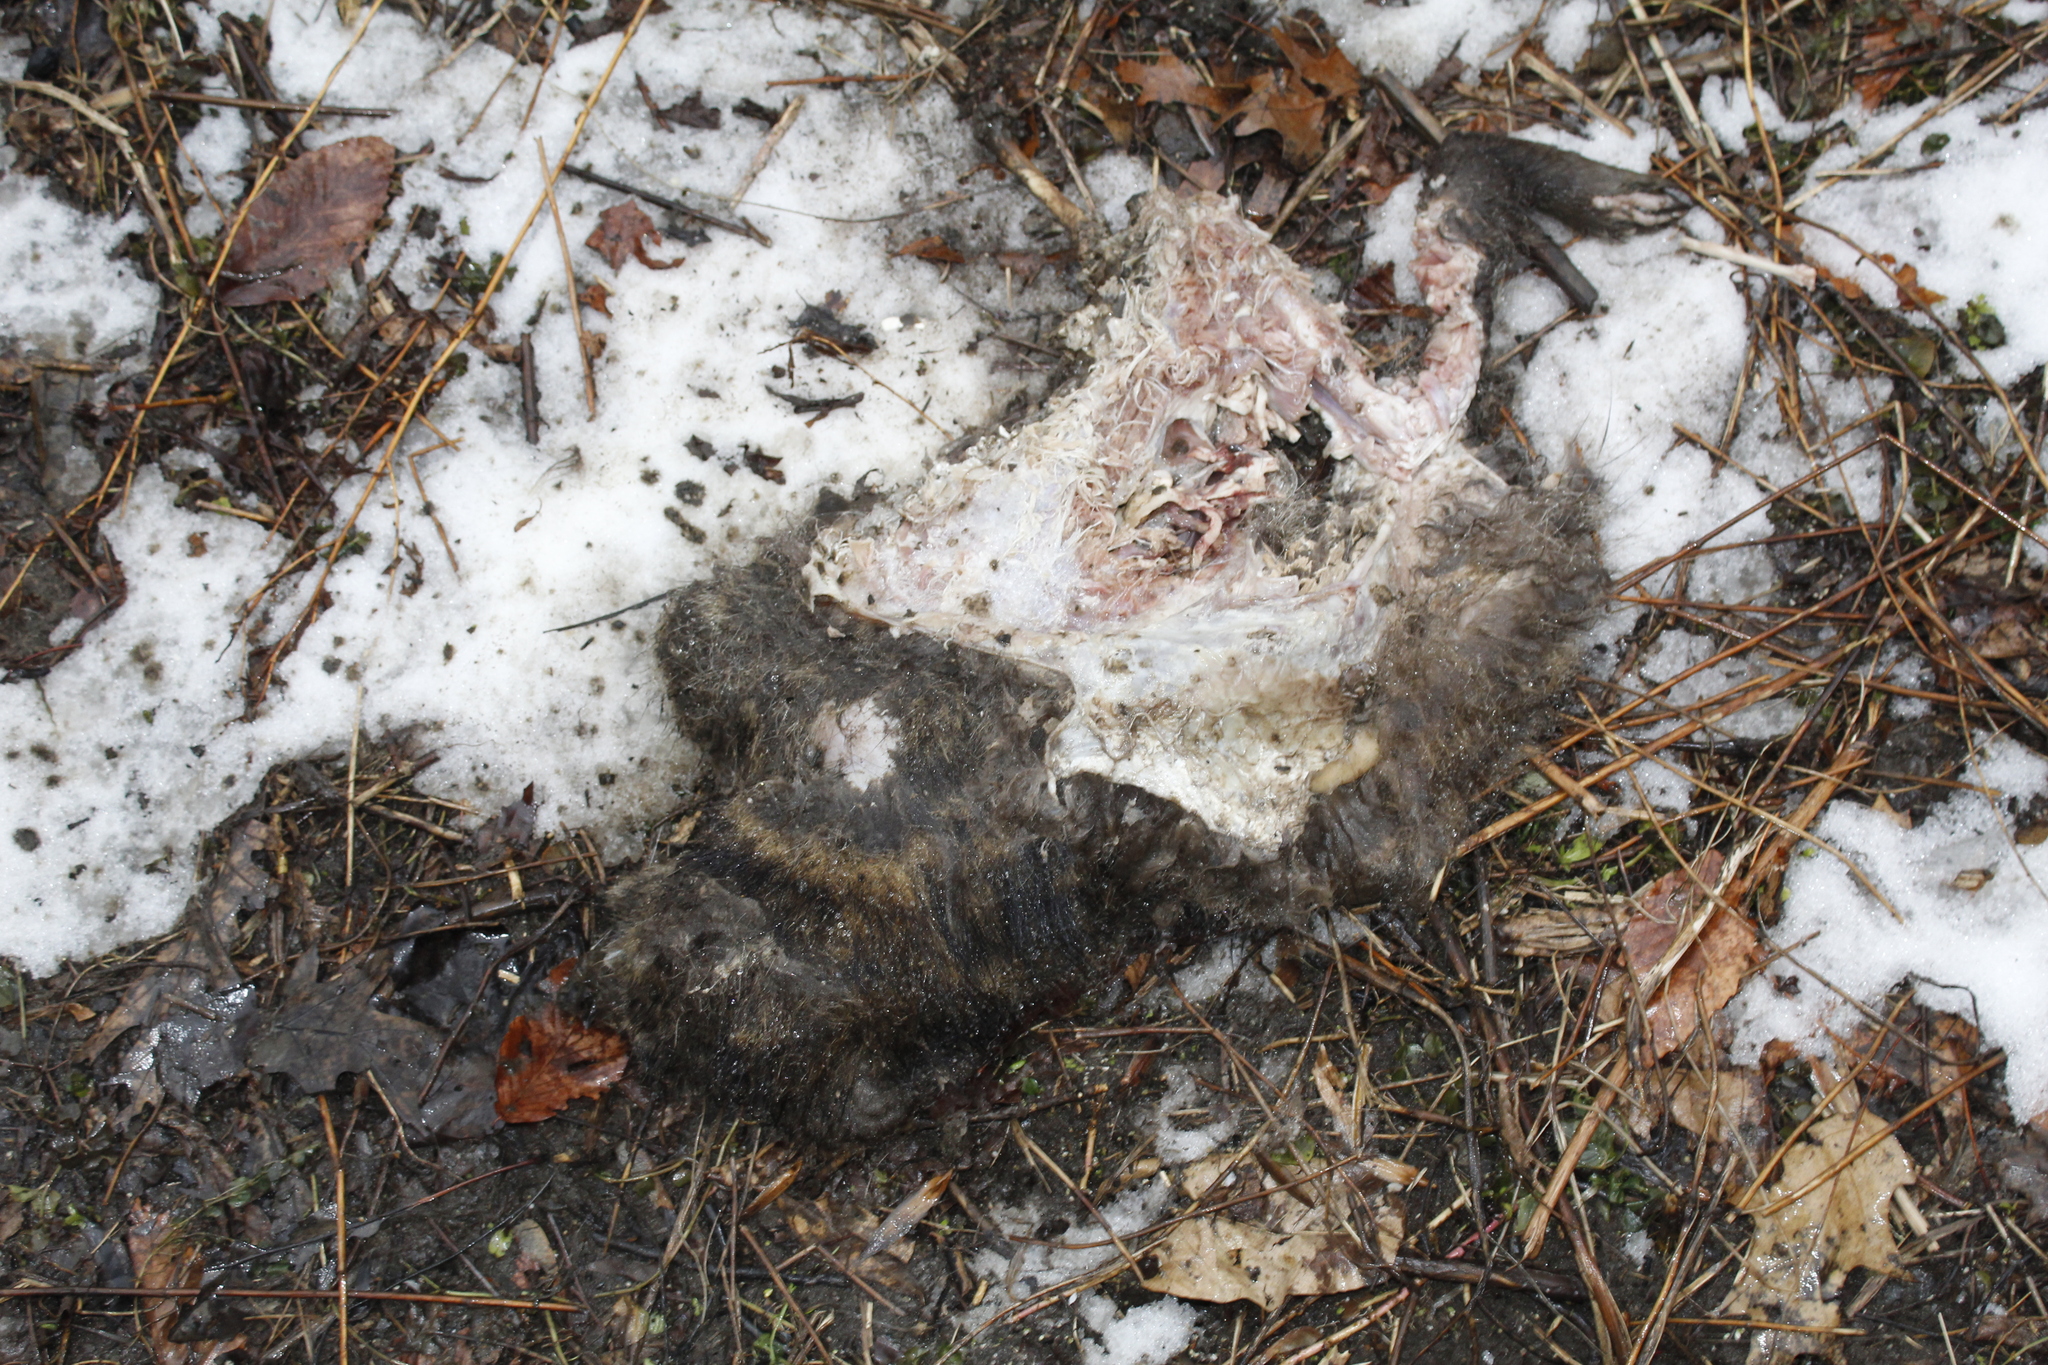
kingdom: Animalia
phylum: Chordata
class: Mammalia
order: Carnivora
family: Procyonidae
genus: Procyon
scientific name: Procyon lotor
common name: Raccoon
